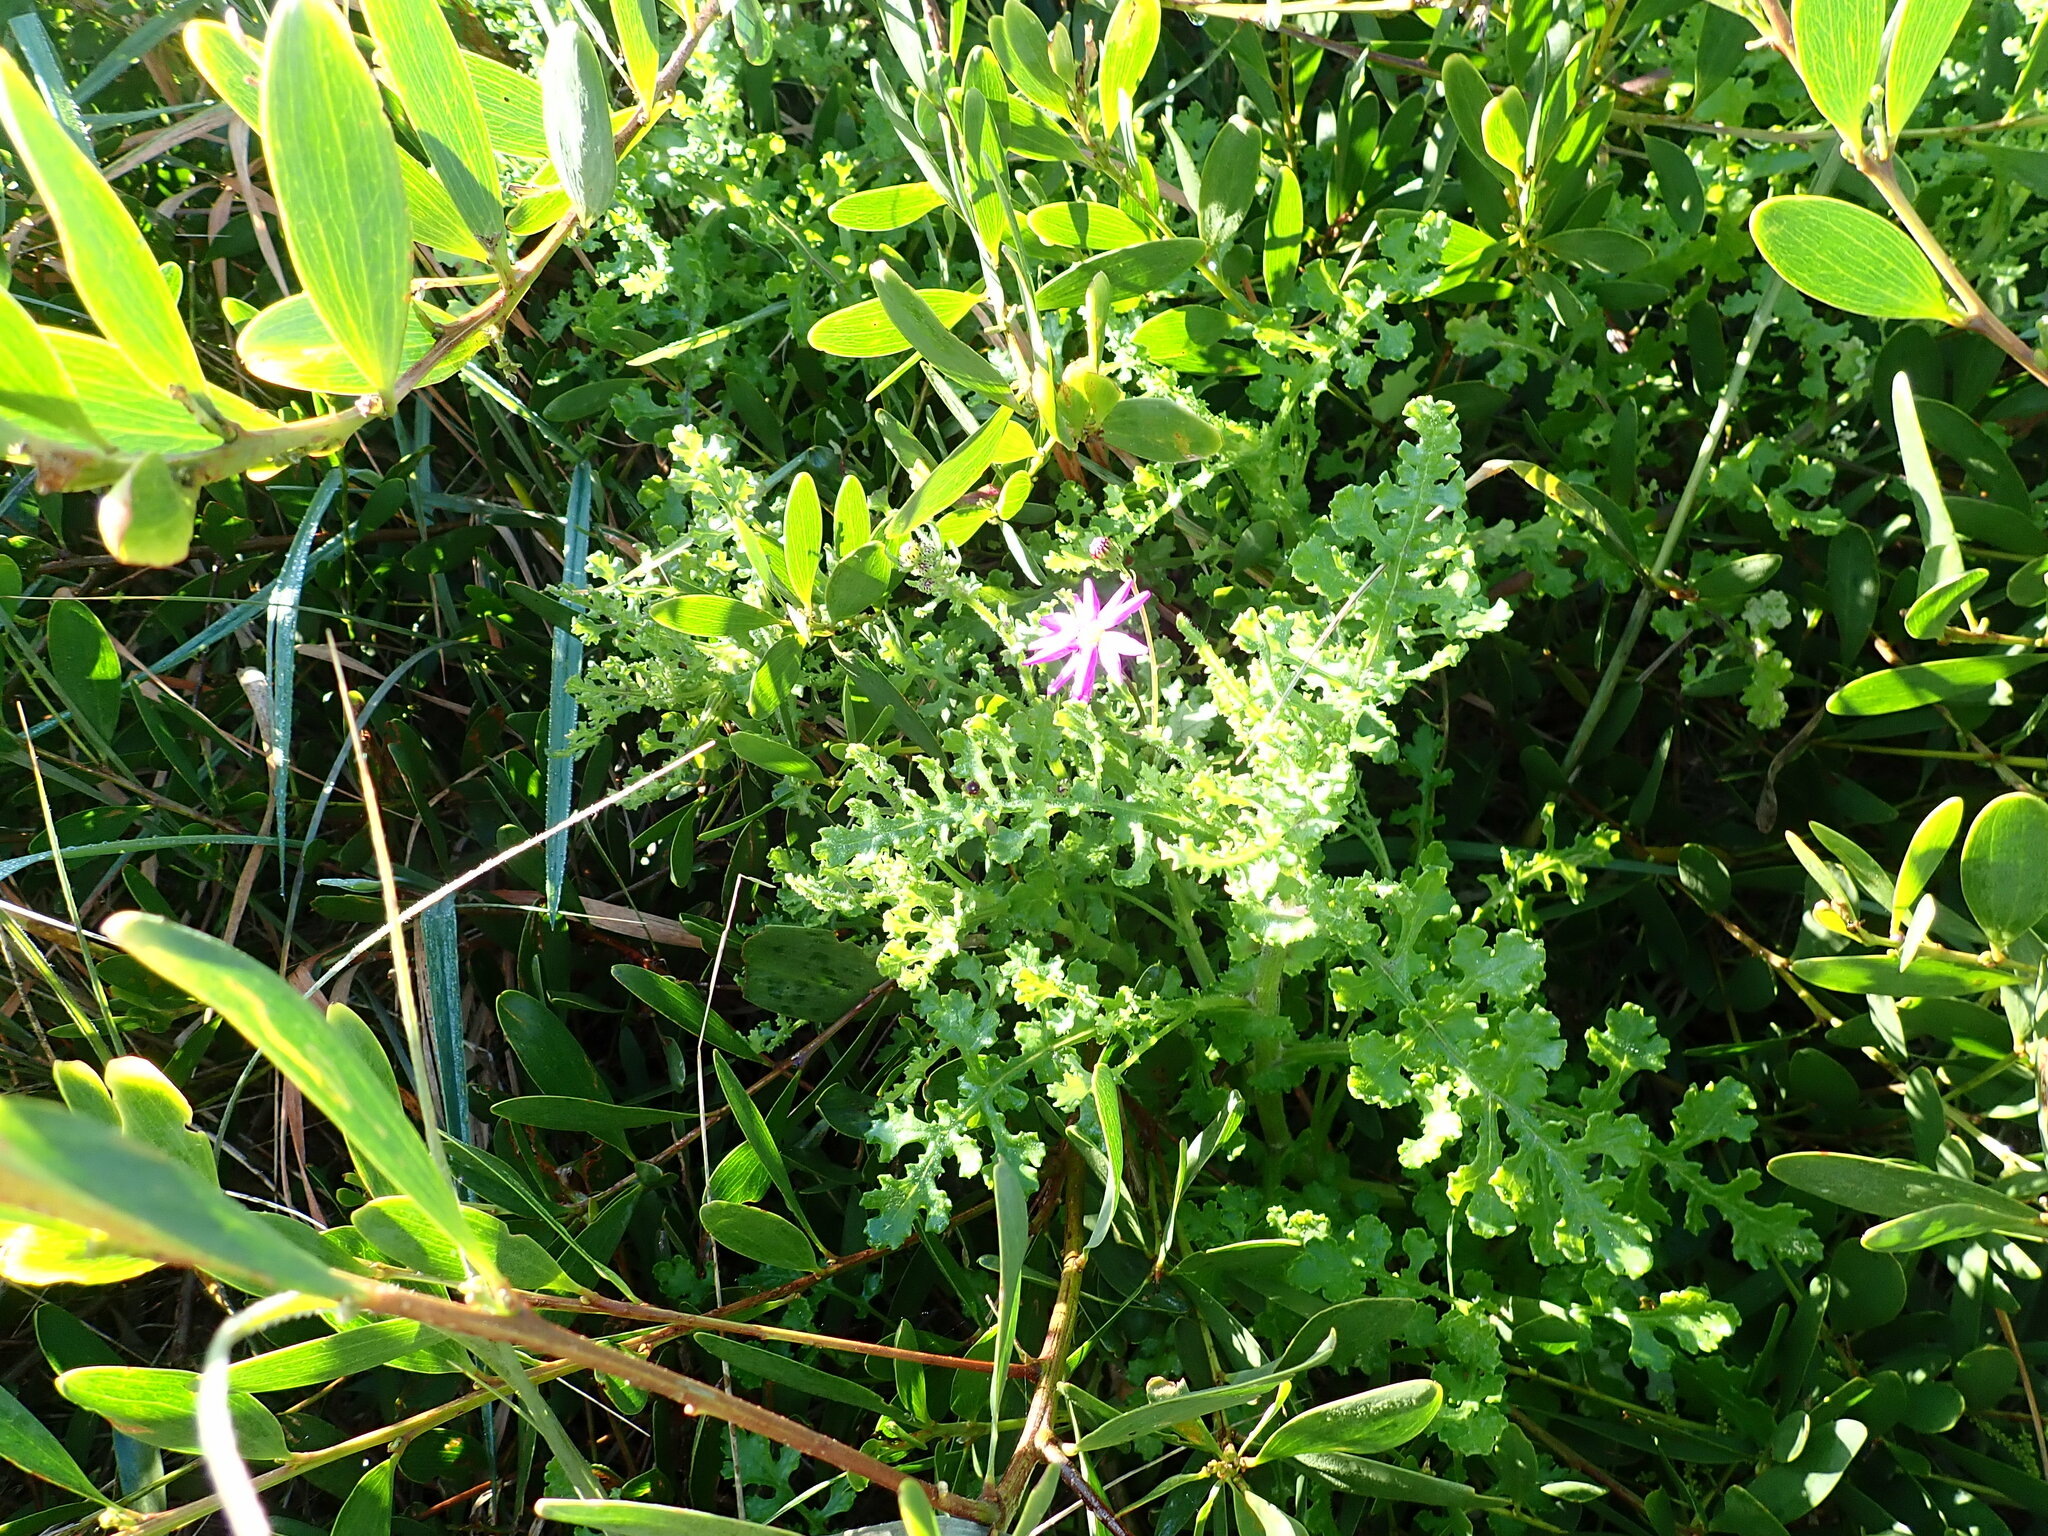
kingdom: Plantae
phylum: Tracheophyta
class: Magnoliopsida
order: Asterales
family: Asteraceae
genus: Senecio
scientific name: Senecio elegans
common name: Purple groundsel
